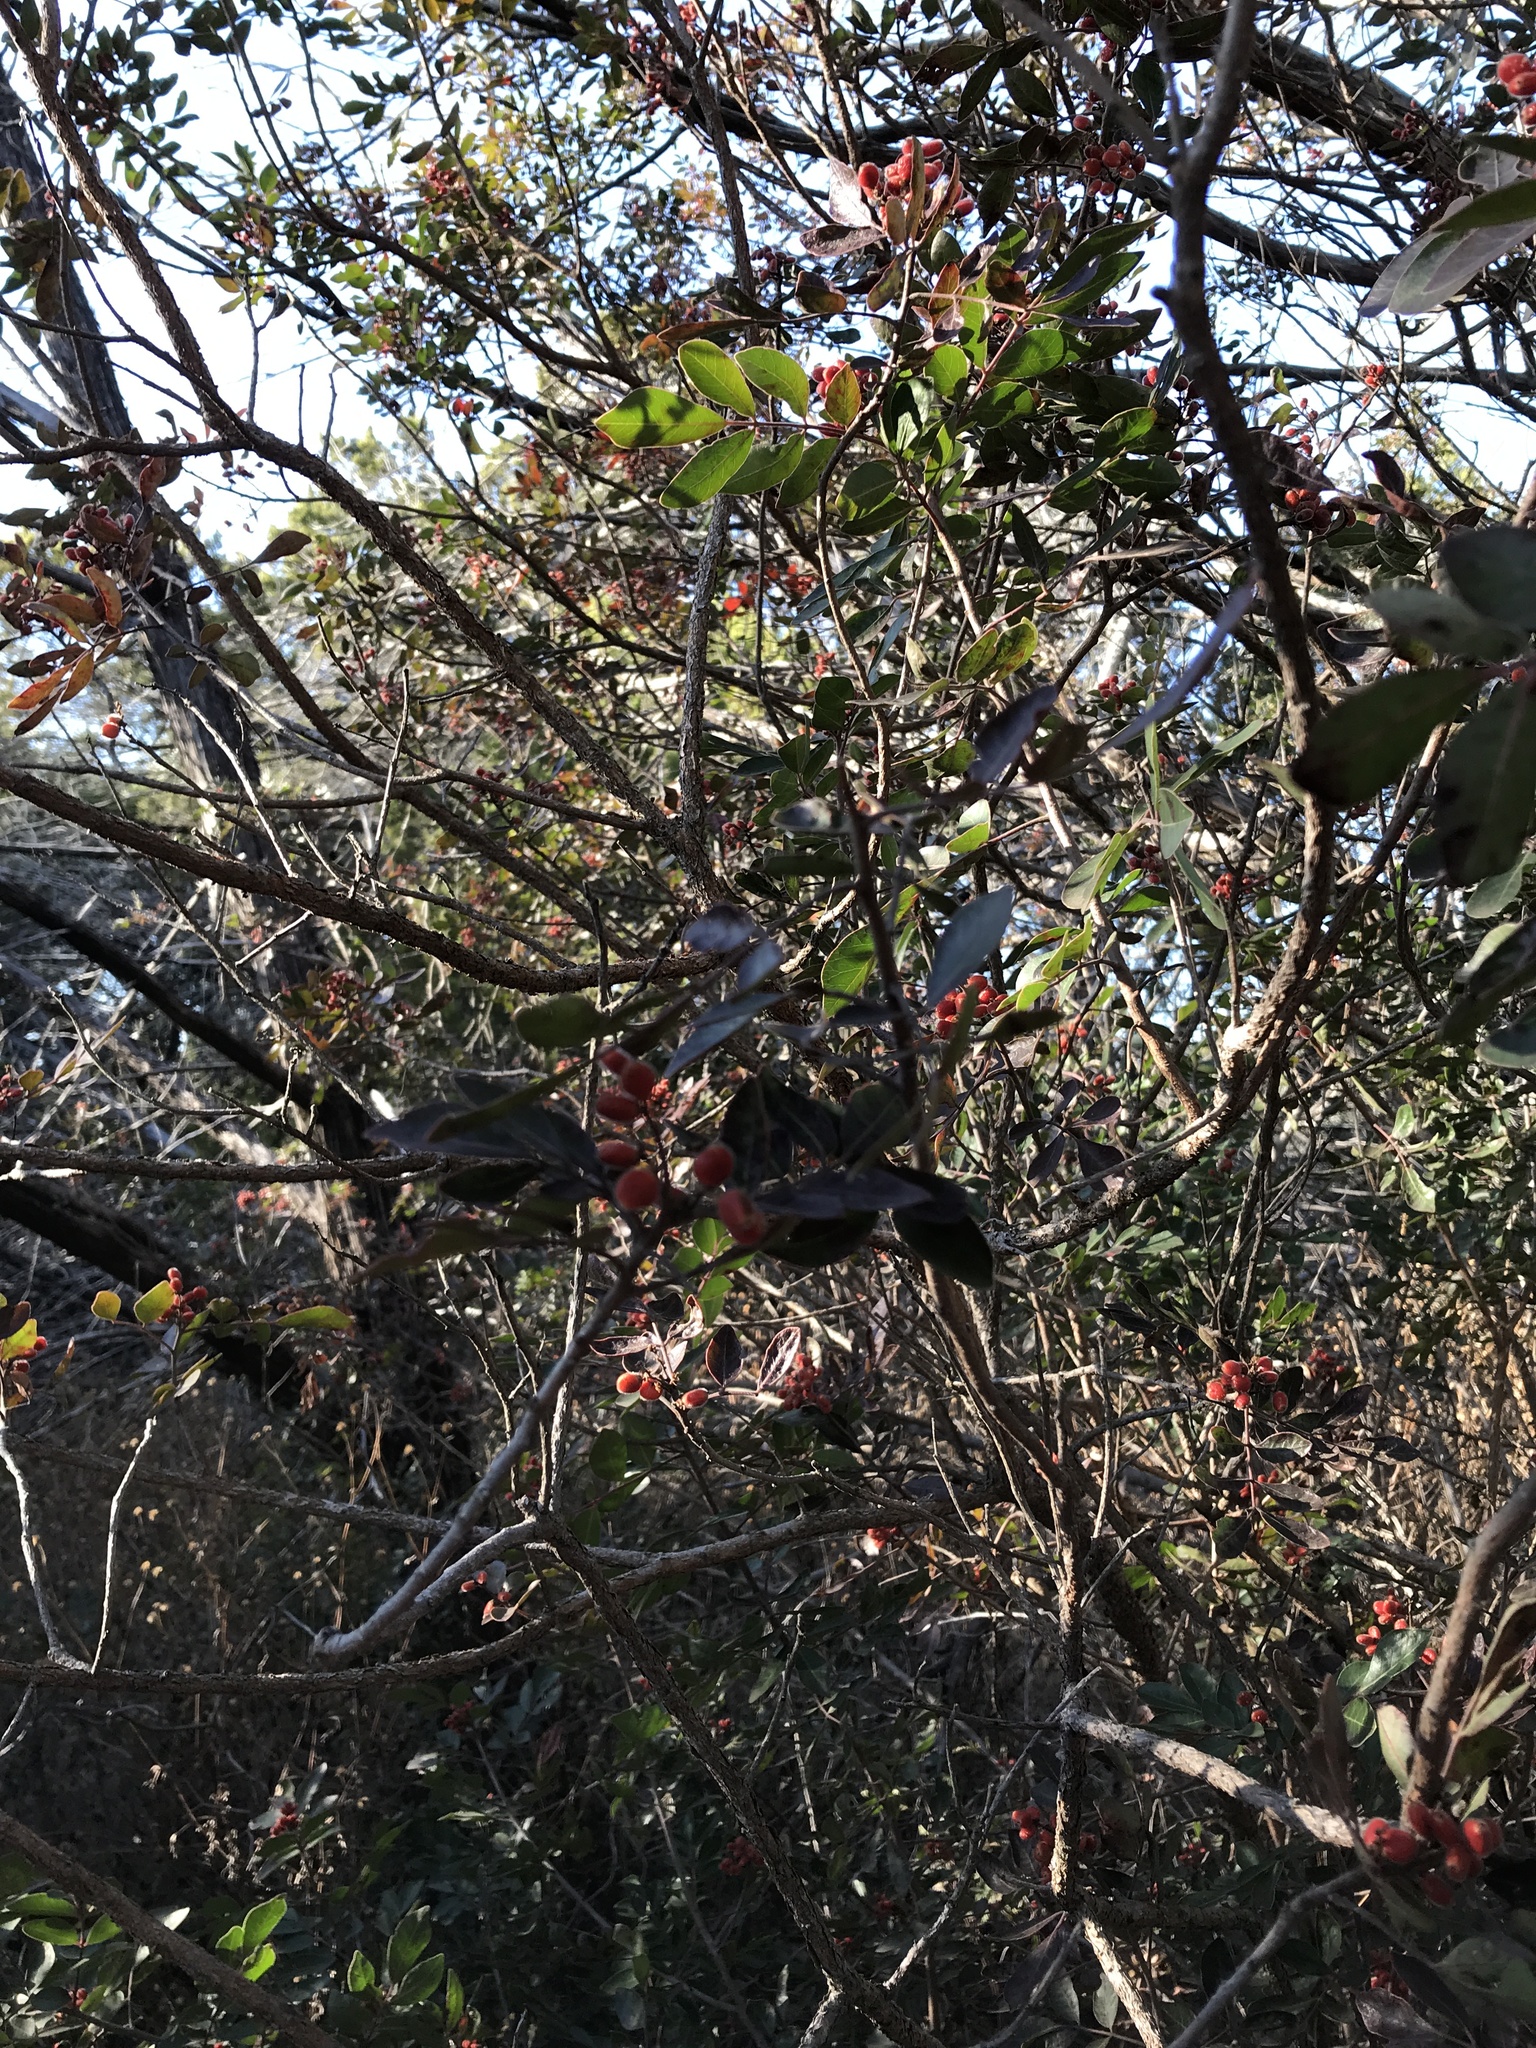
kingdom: Plantae
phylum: Tracheophyta
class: Magnoliopsida
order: Sapindales
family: Anacardiaceae
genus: Rhus
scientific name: Rhus virens
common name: Evergreen sumac
